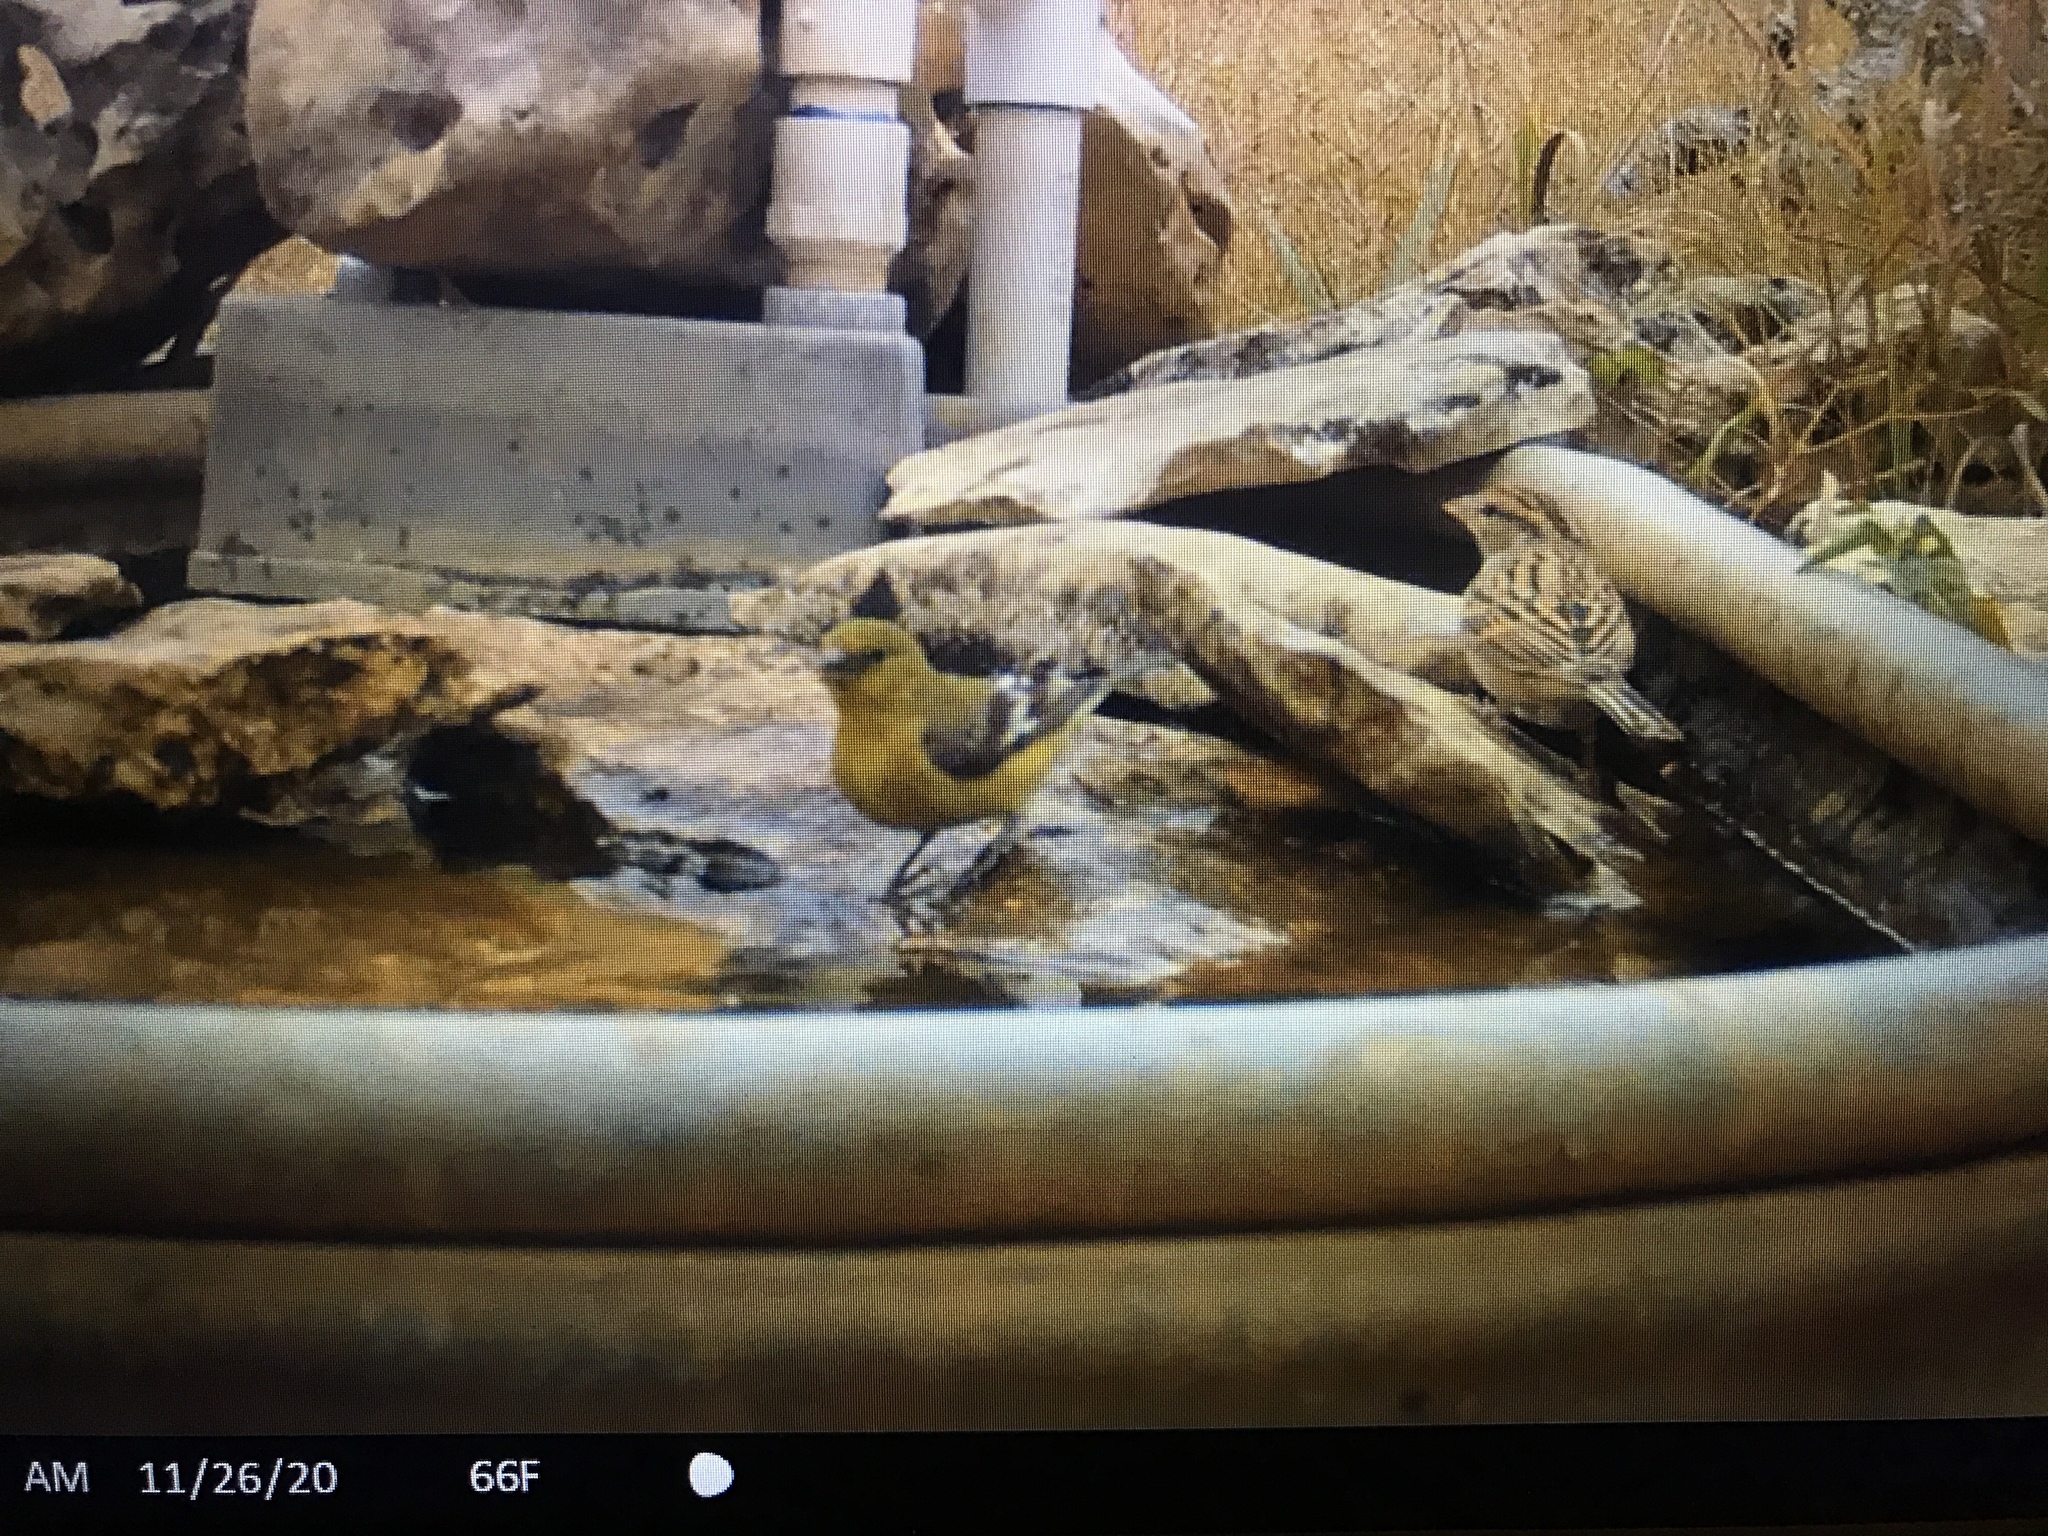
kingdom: Animalia
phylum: Chordata
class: Aves
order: Passeriformes
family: Fringillidae
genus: Spinus
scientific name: Spinus psaltria
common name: Lesser goldfinch
